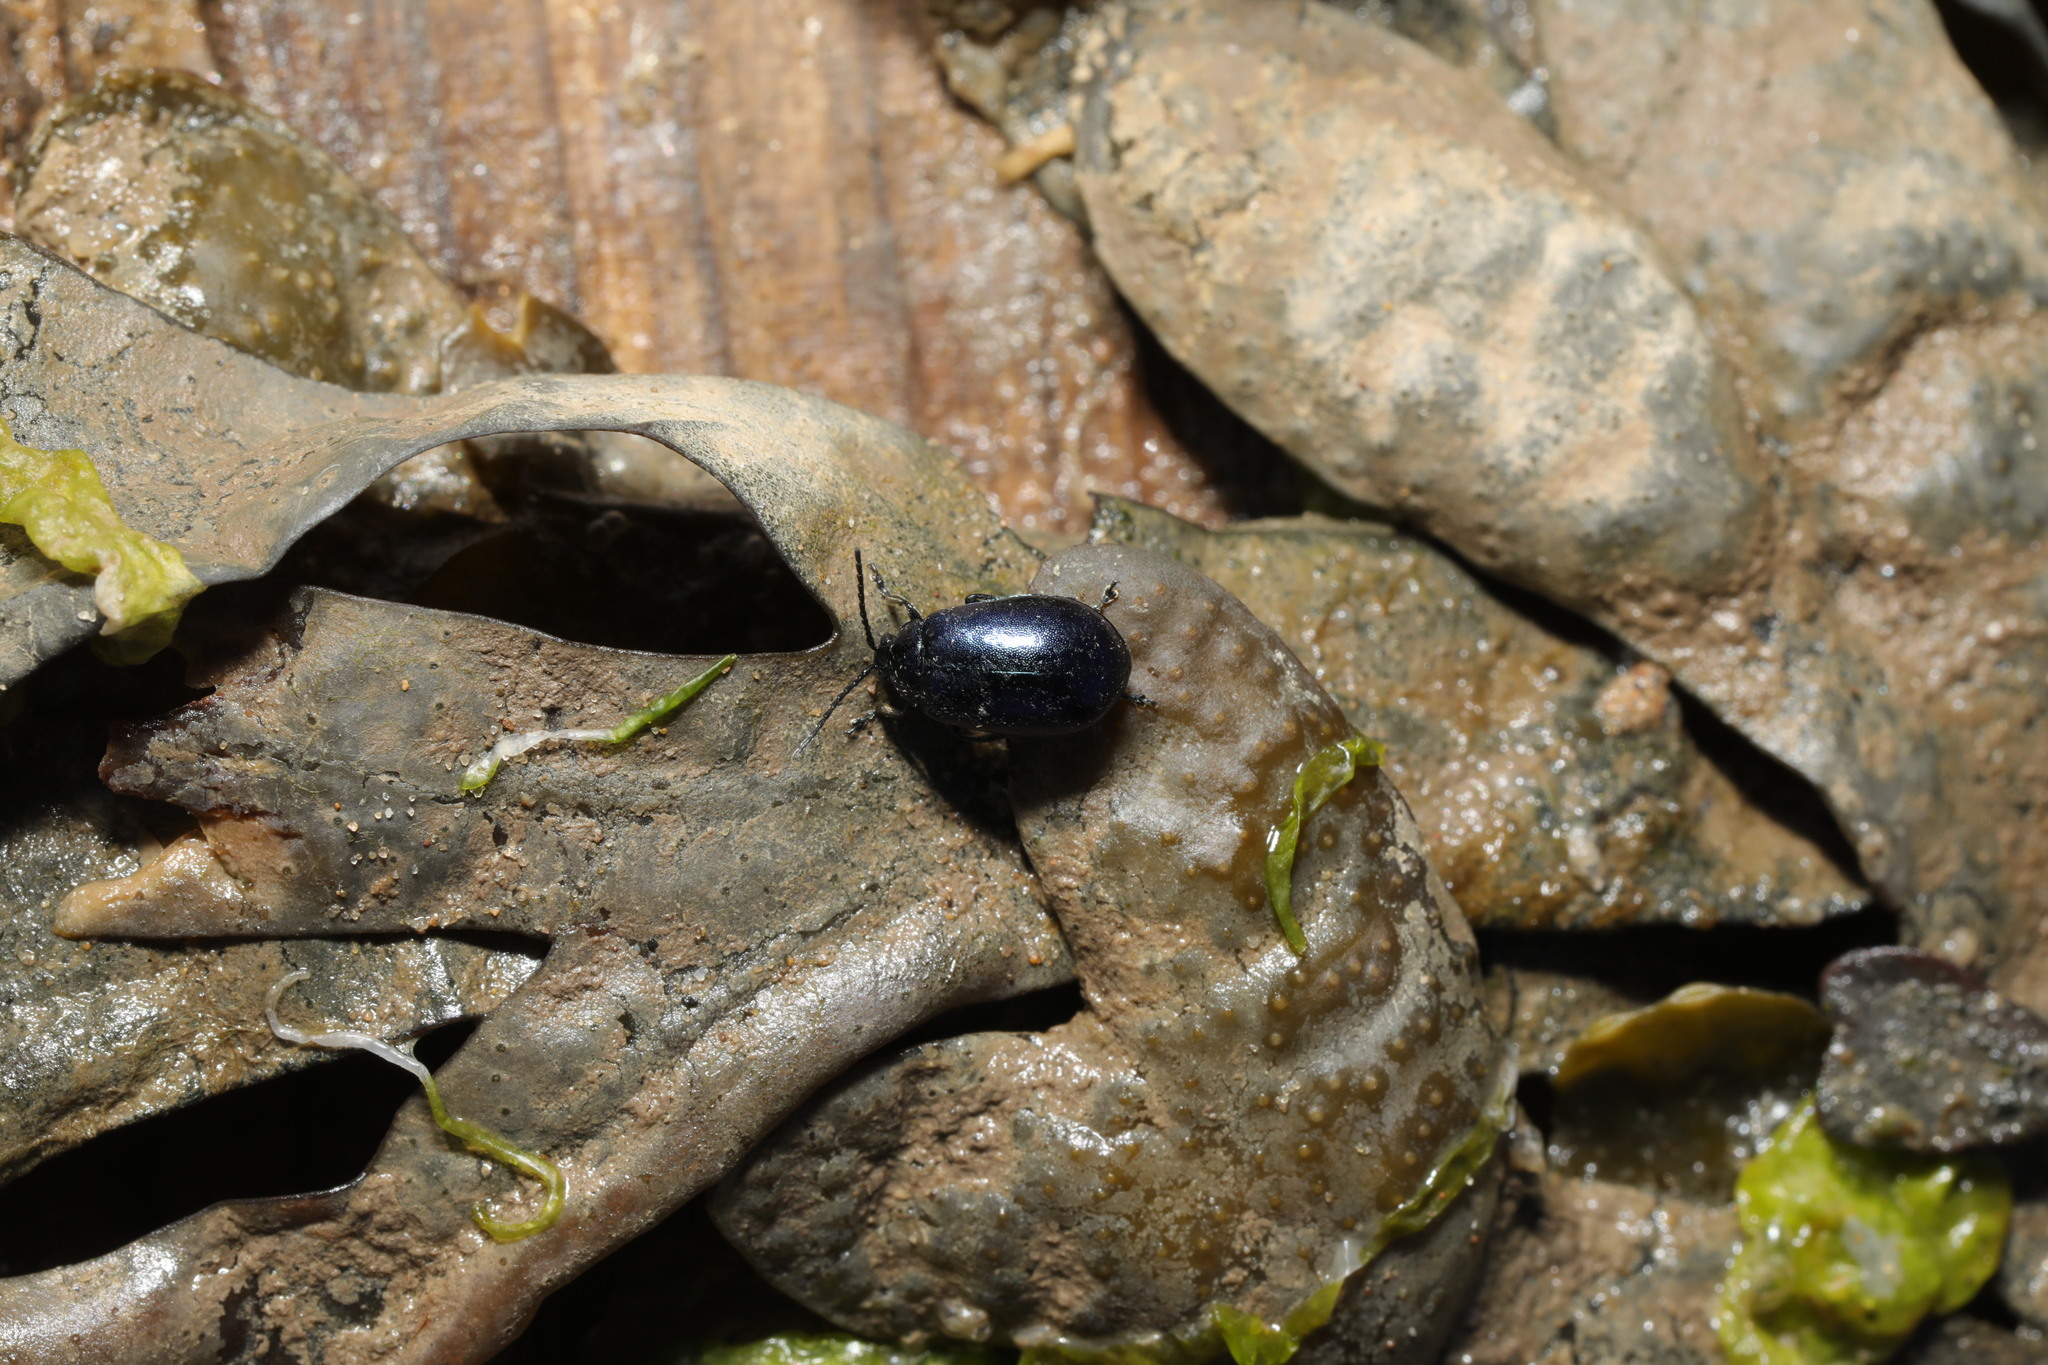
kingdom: Animalia
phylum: Arthropoda
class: Insecta
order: Coleoptera
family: Chrysomelidae
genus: Agelastica
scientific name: Agelastica alni
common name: Alder leaf beetle
